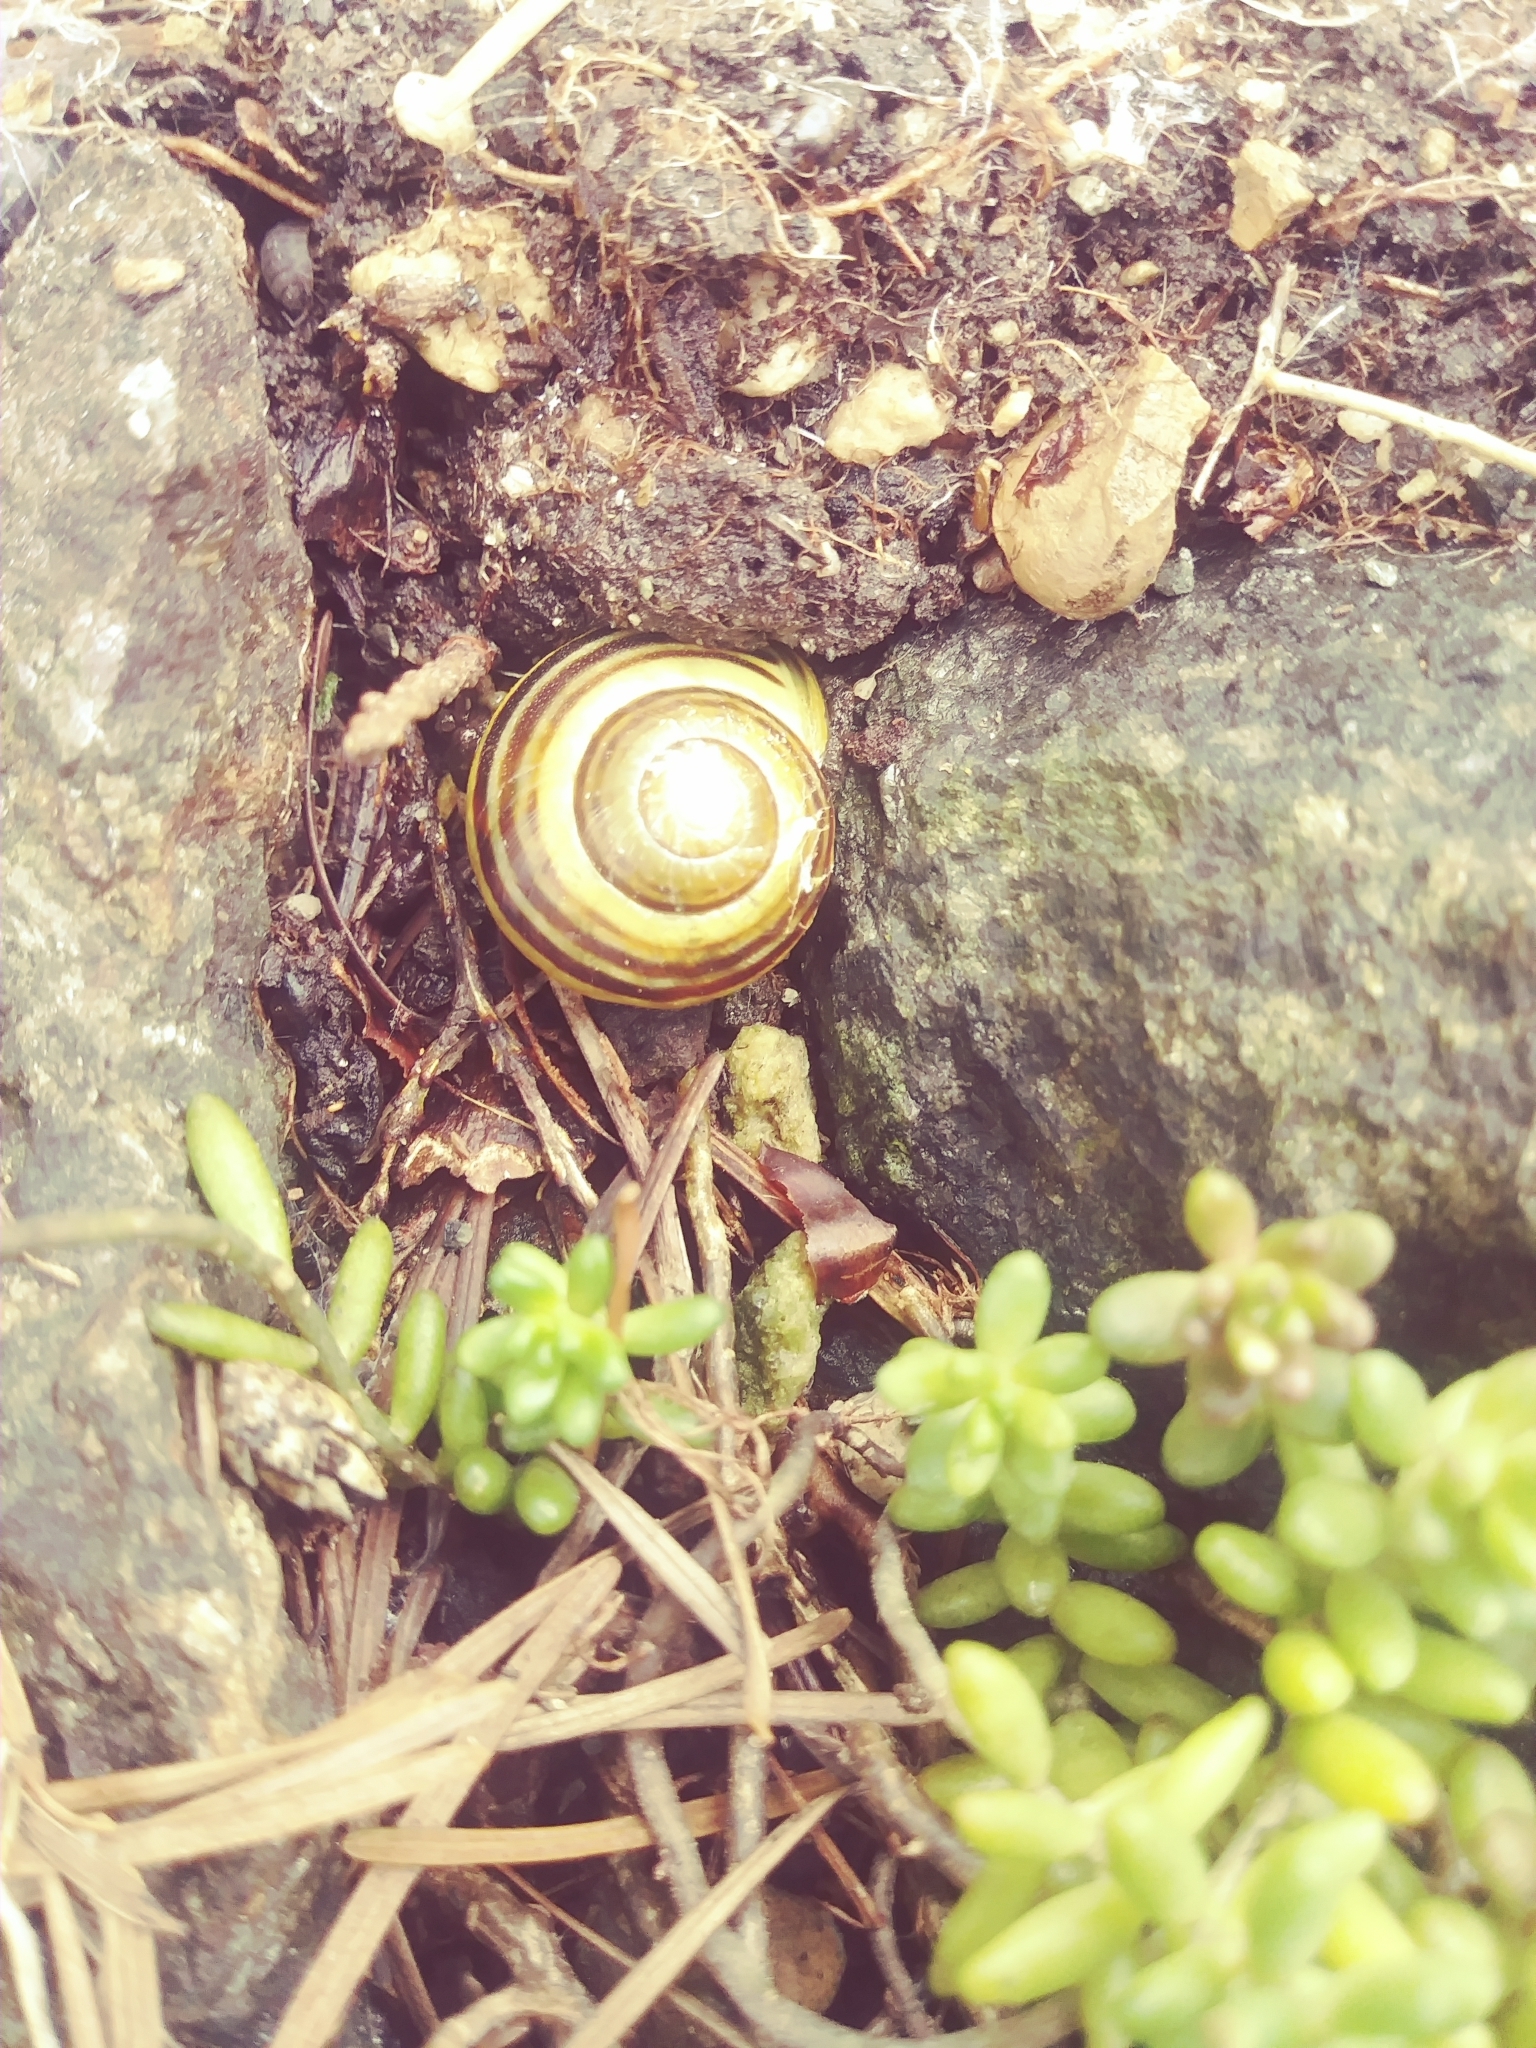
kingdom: Animalia
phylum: Mollusca
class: Gastropoda
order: Stylommatophora
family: Helicidae
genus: Cepaea
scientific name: Cepaea nemoralis
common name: Grovesnail
